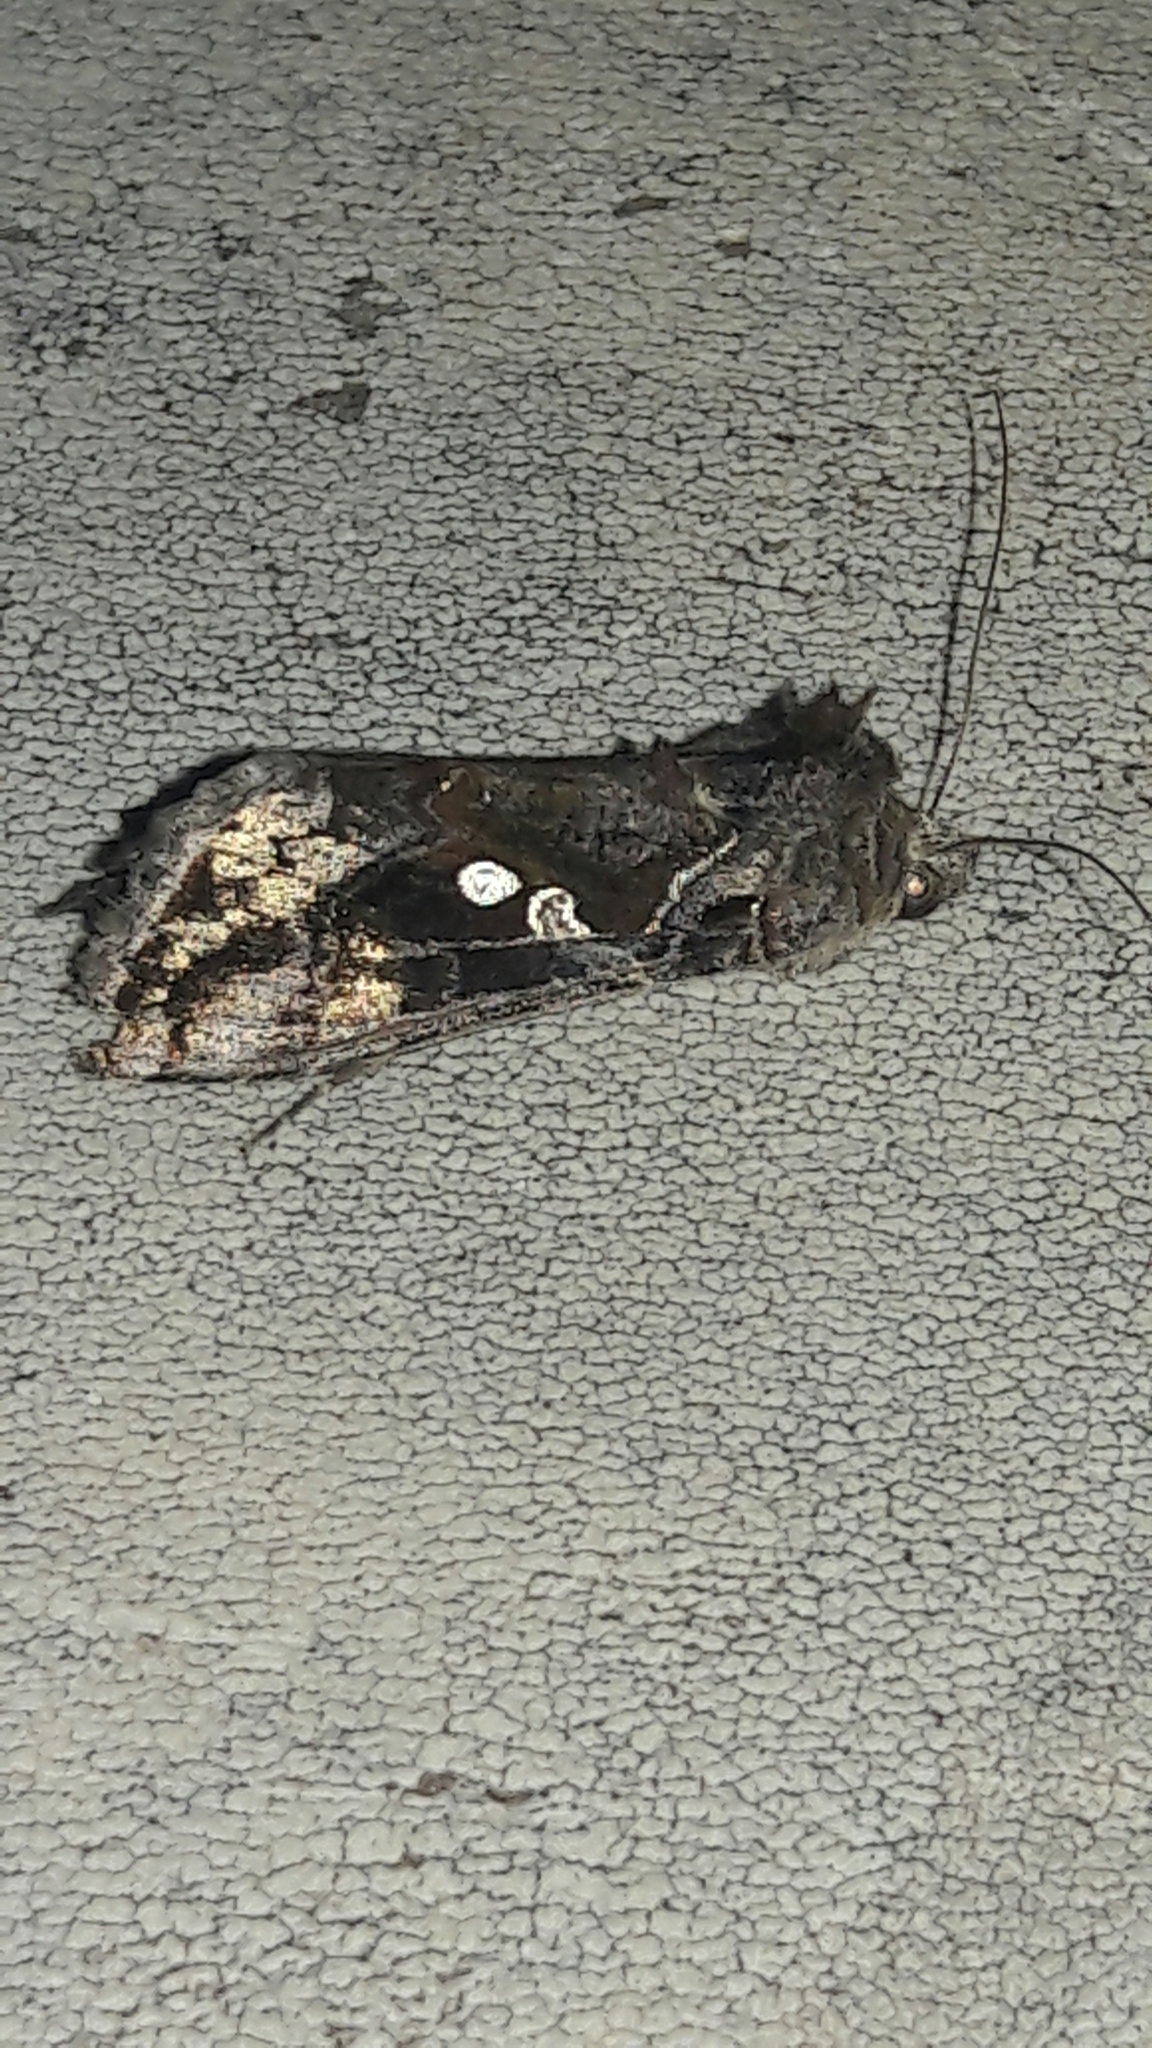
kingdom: Animalia
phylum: Arthropoda
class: Insecta
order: Lepidoptera
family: Noctuidae
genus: Chrysodeixis
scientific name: Chrysodeixis includens
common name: Cutworm moth
